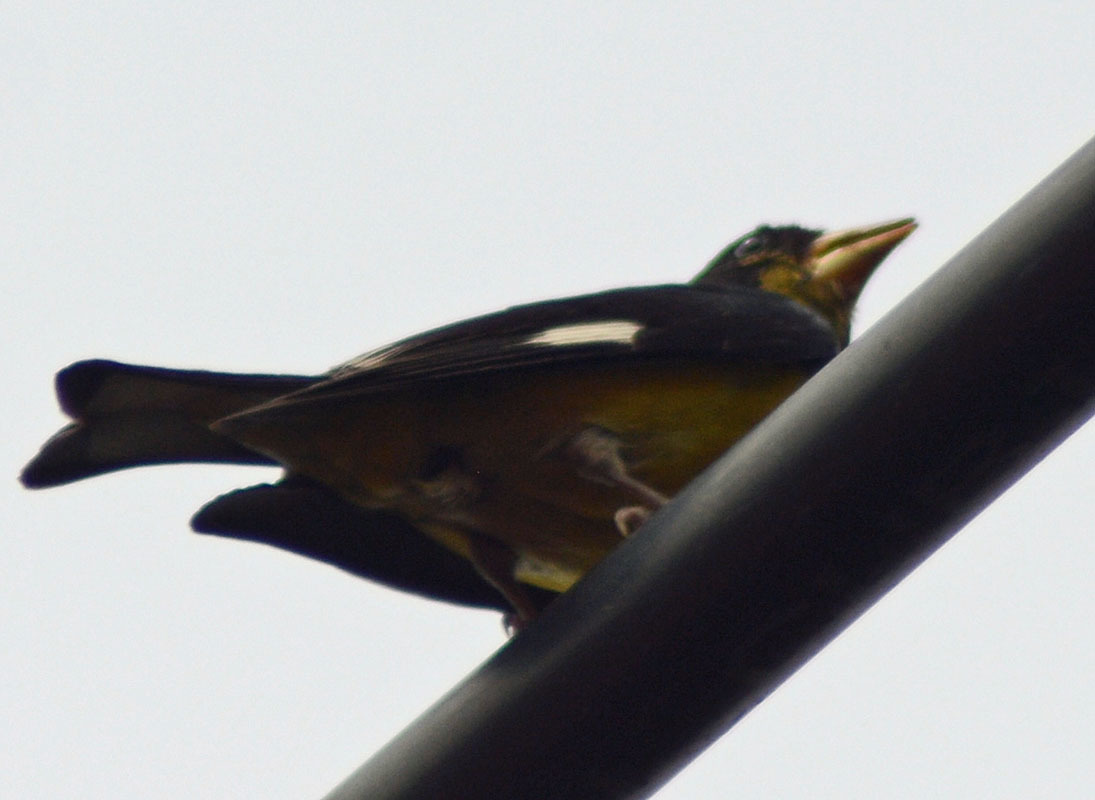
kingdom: Animalia
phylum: Chordata
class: Aves
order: Passeriformes
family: Fringillidae
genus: Spinus
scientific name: Spinus psaltria
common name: Lesser goldfinch
